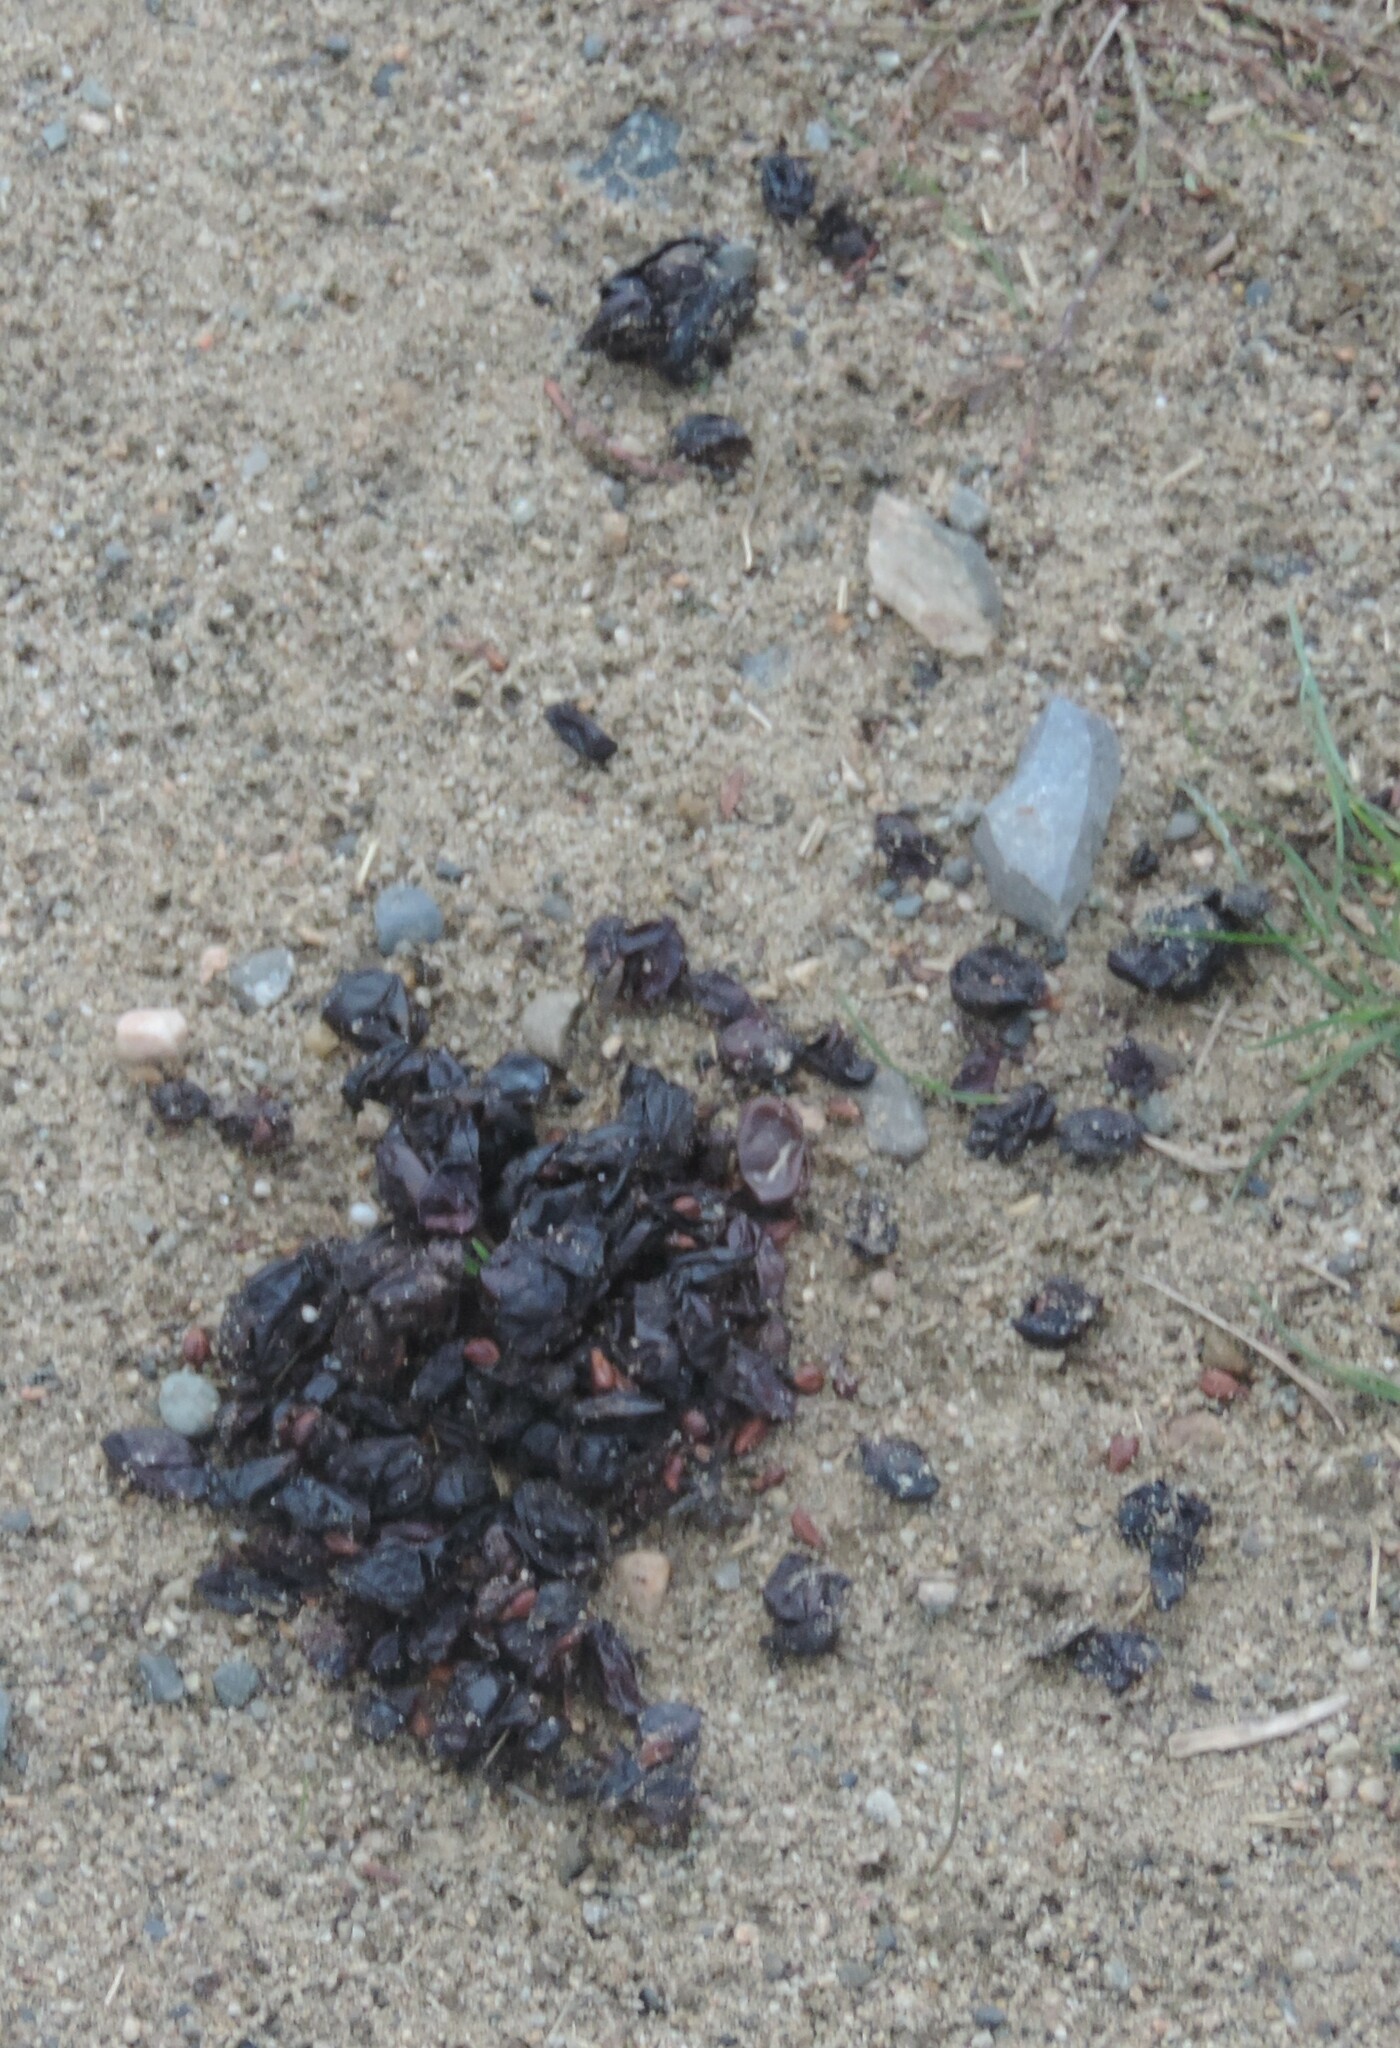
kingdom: Animalia
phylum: Chordata
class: Mammalia
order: Carnivora
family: Ursidae
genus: Ursus
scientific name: Ursus americanus
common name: American black bear
